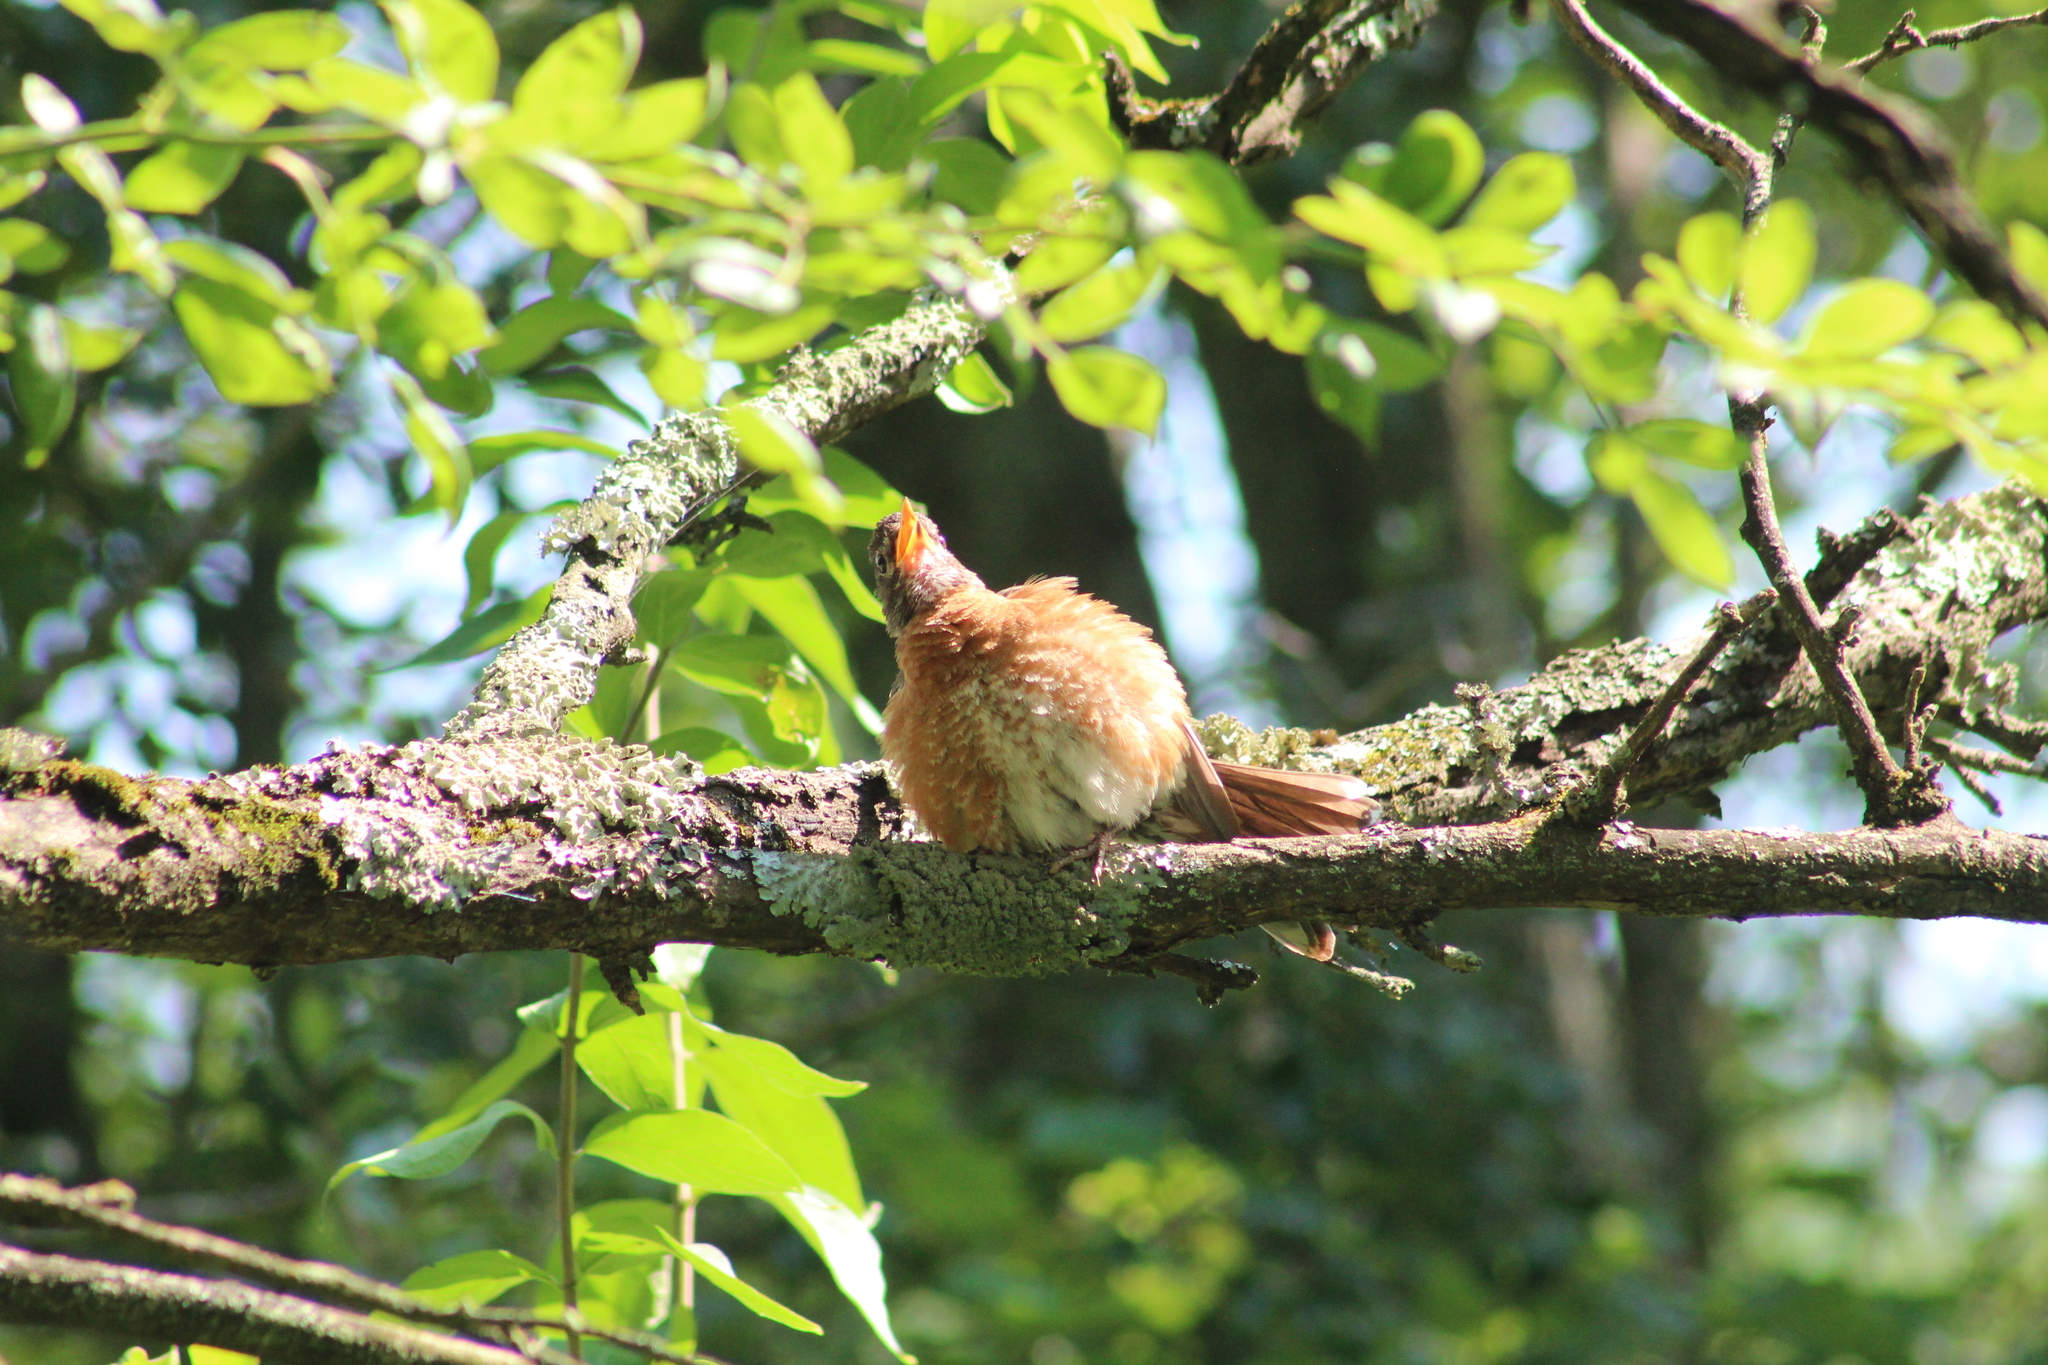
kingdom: Animalia
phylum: Chordata
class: Aves
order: Passeriformes
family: Turdidae
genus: Turdus
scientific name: Turdus migratorius
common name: American robin
